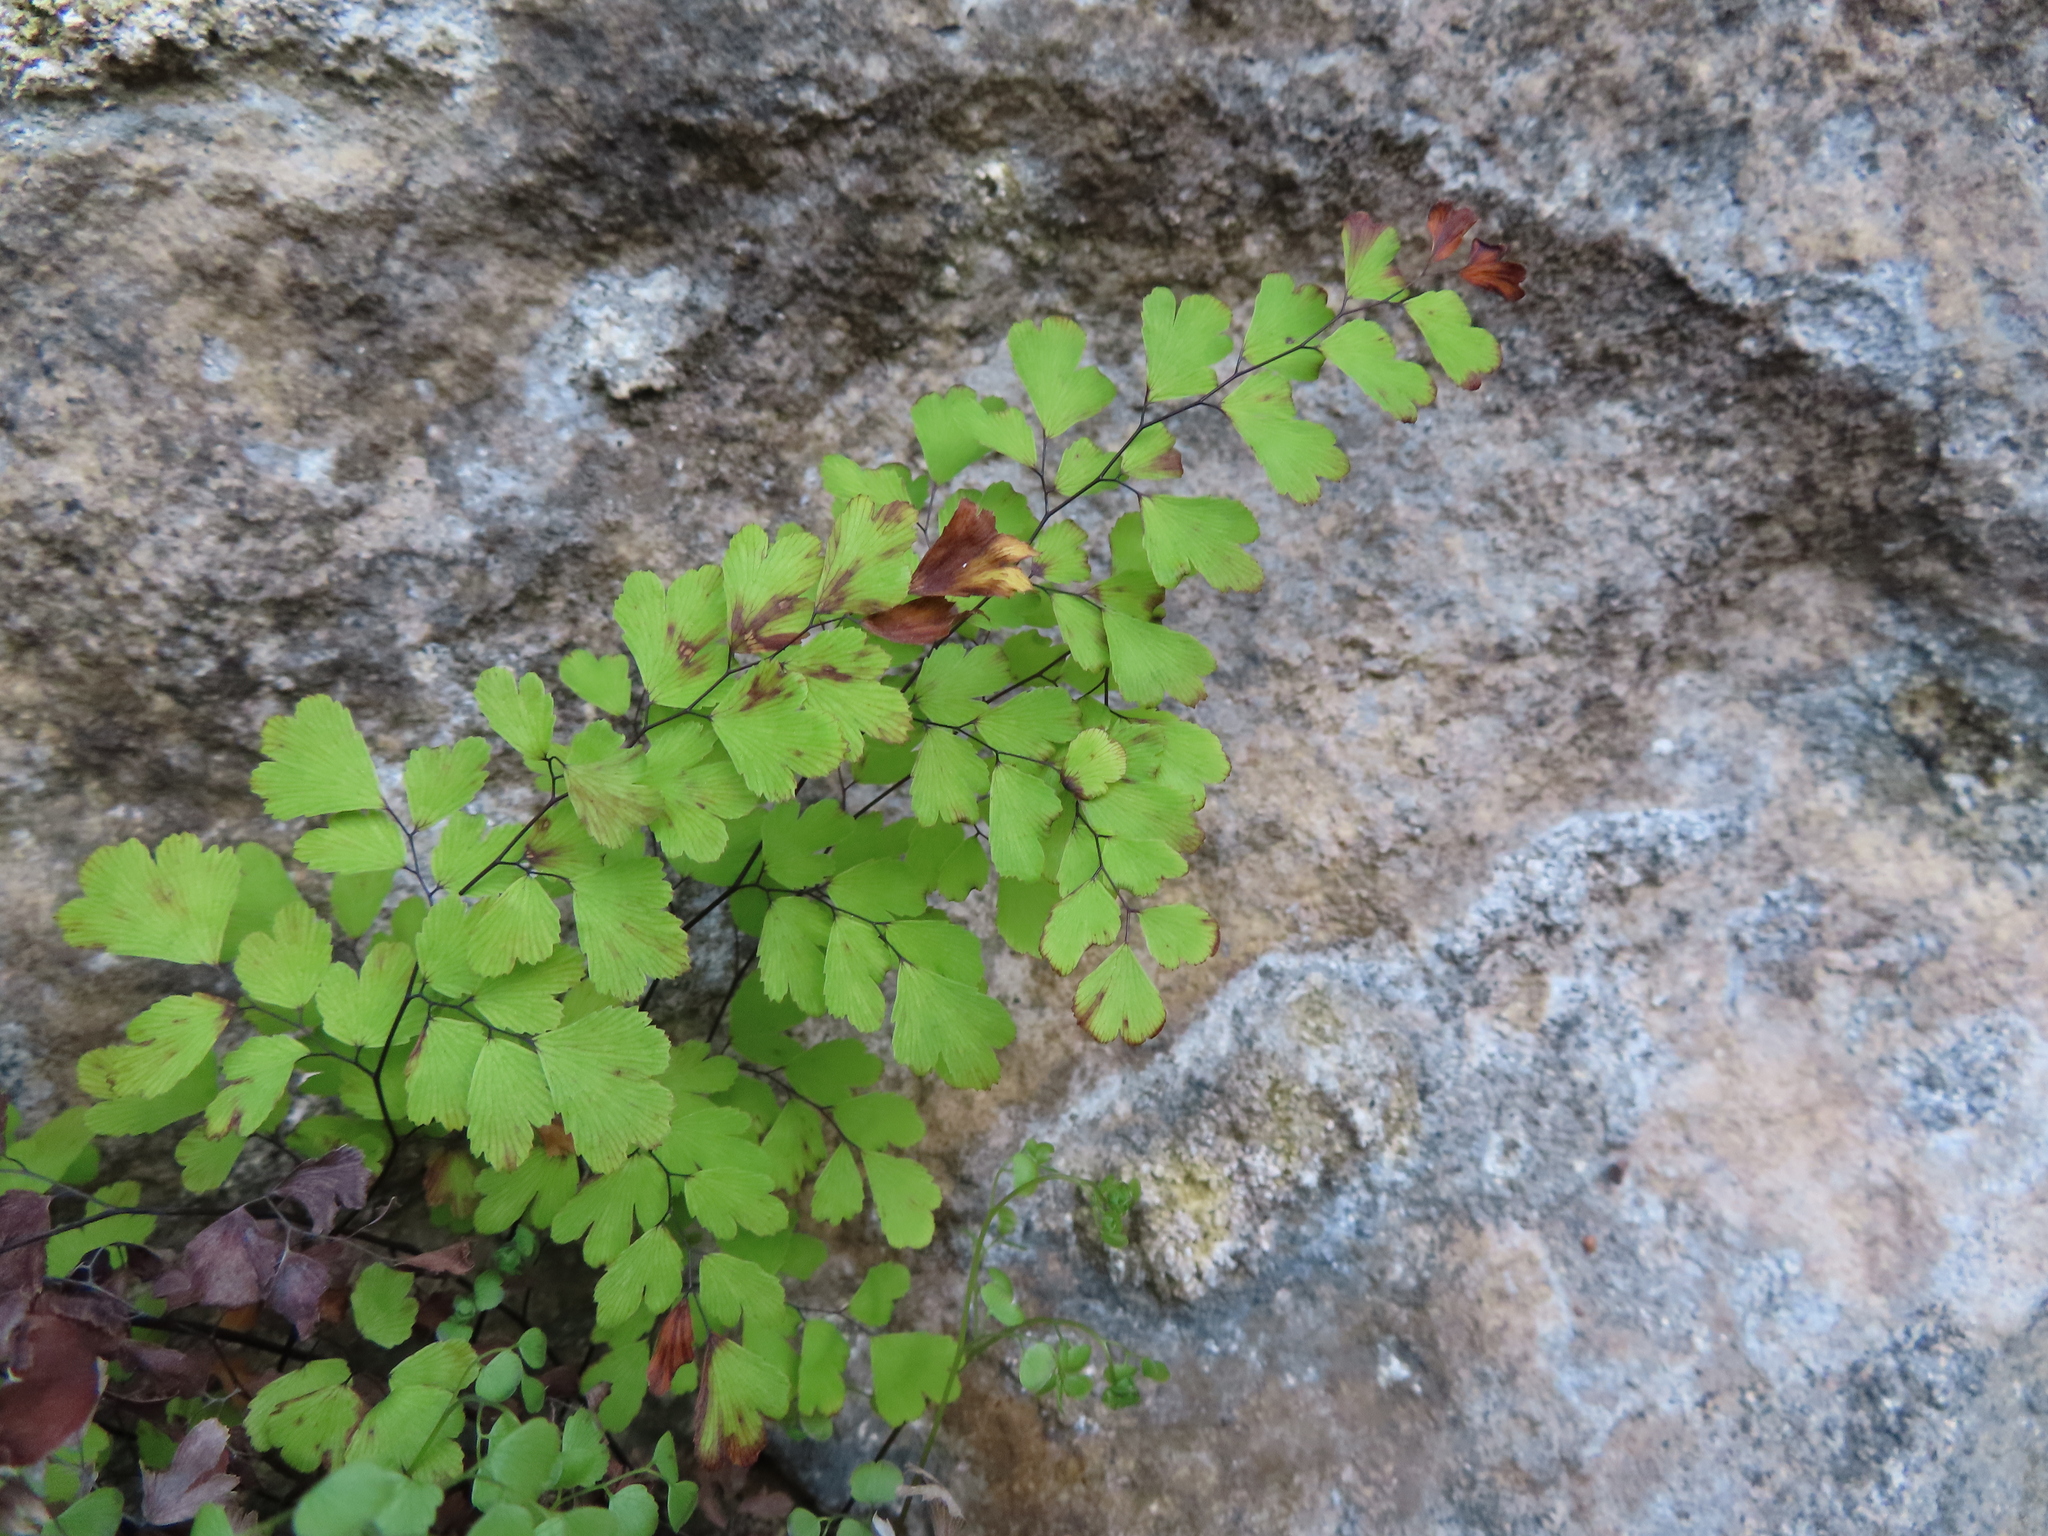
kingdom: Plantae
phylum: Tracheophyta
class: Polypodiopsida
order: Polypodiales
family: Pteridaceae
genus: Adiantum
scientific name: Adiantum capillus-veneris
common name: Maidenhair fern
